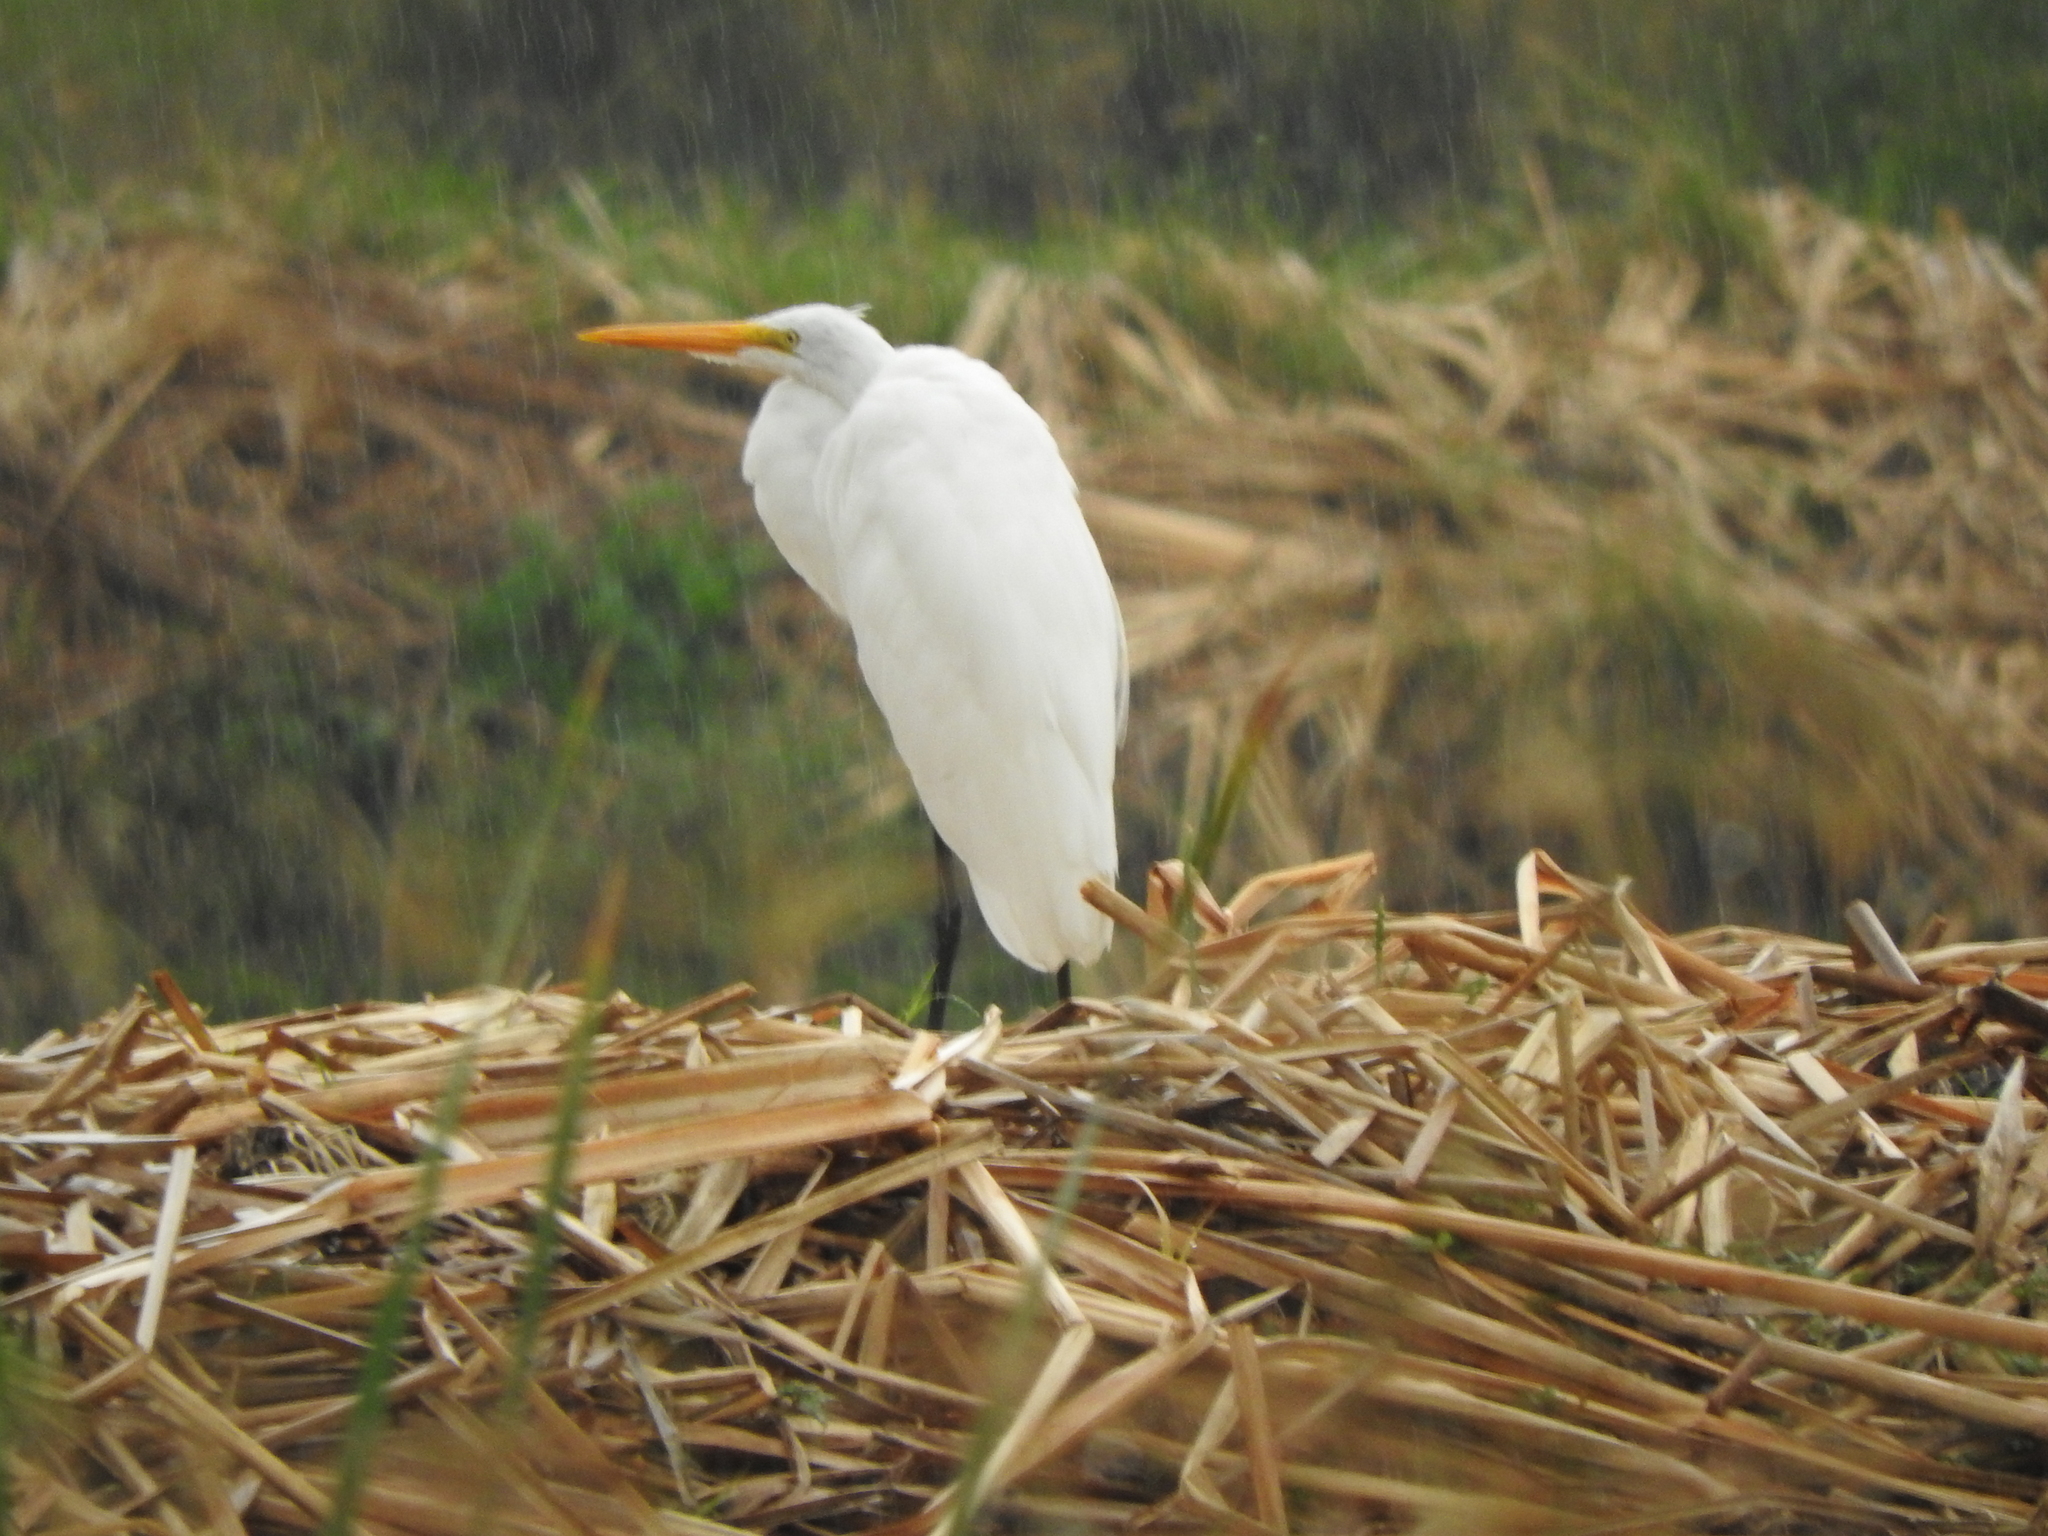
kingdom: Animalia
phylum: Chordata
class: Aves
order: Pelecaniformes
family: Ardeidae
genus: Ardea
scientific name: Ardea alba
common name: Great egret
